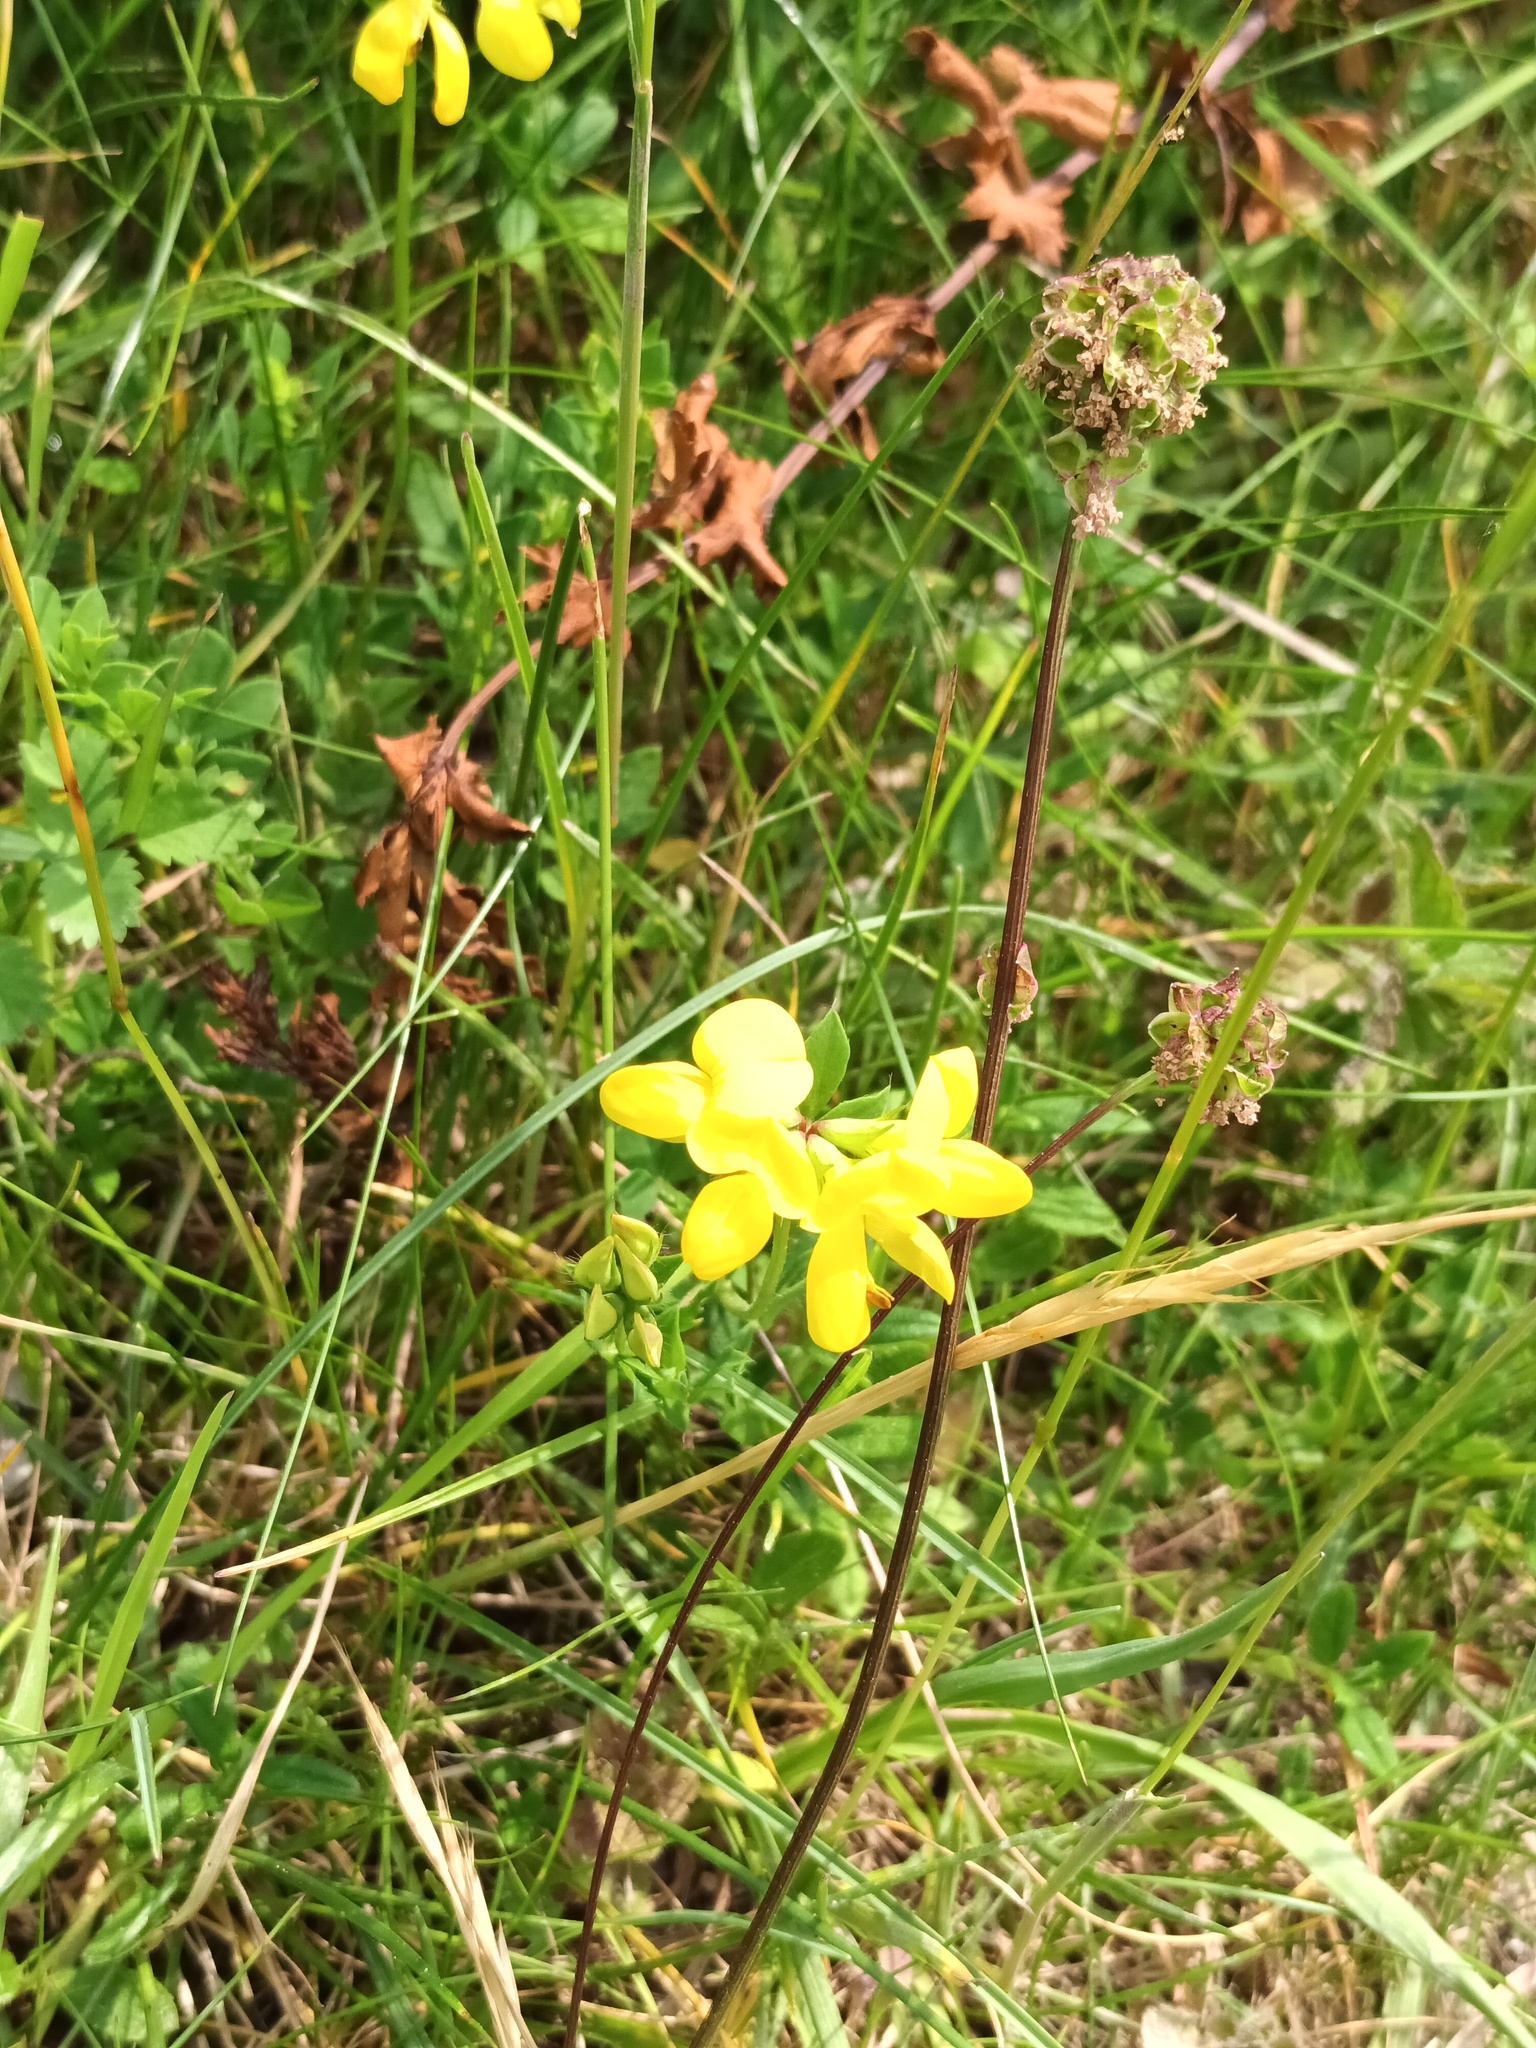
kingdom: Plantae
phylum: Tracheophyta
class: Magnoliopsida
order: Fabales
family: Fabaceae
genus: Lotus
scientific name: Lotus corniculatus
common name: Common bird's-foot-trefoil
